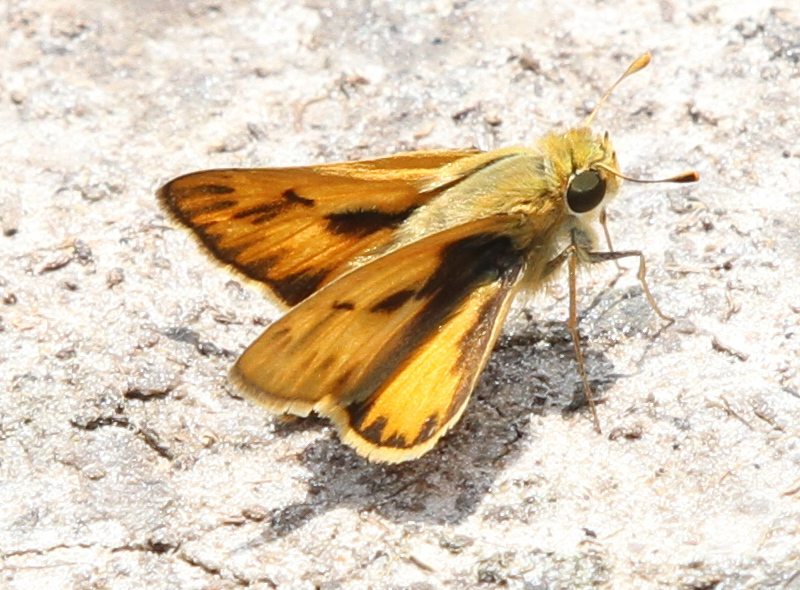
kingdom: Animalia
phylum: Arthropoda
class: Insecta
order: Lepidoptera
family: Hesperiidae
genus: Hylephila
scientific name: Hylephila phyleus
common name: Fiery skipper
